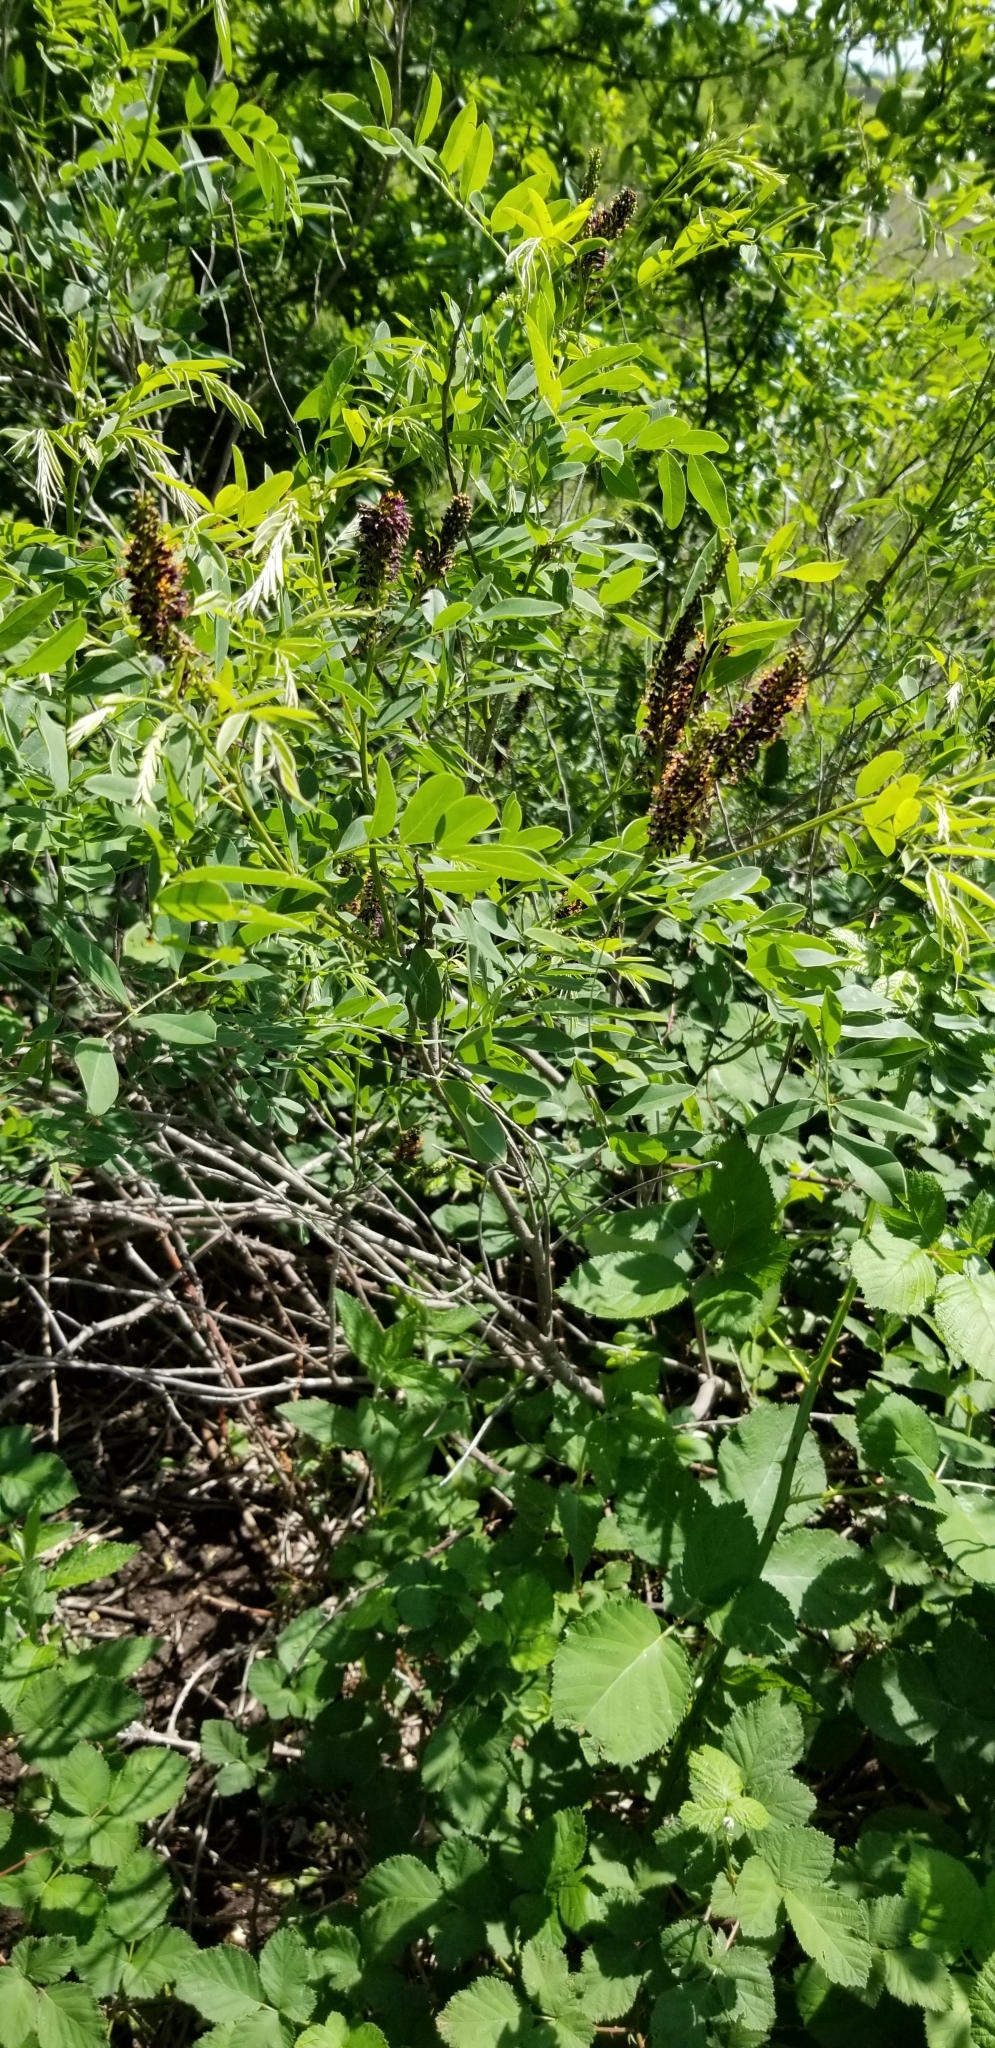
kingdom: Plantae
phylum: Tracheophyta
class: Magnoliopsida
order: Fabales
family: Fabaceae
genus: Amorpha
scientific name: Amorpha fruticosa
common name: False indigo
